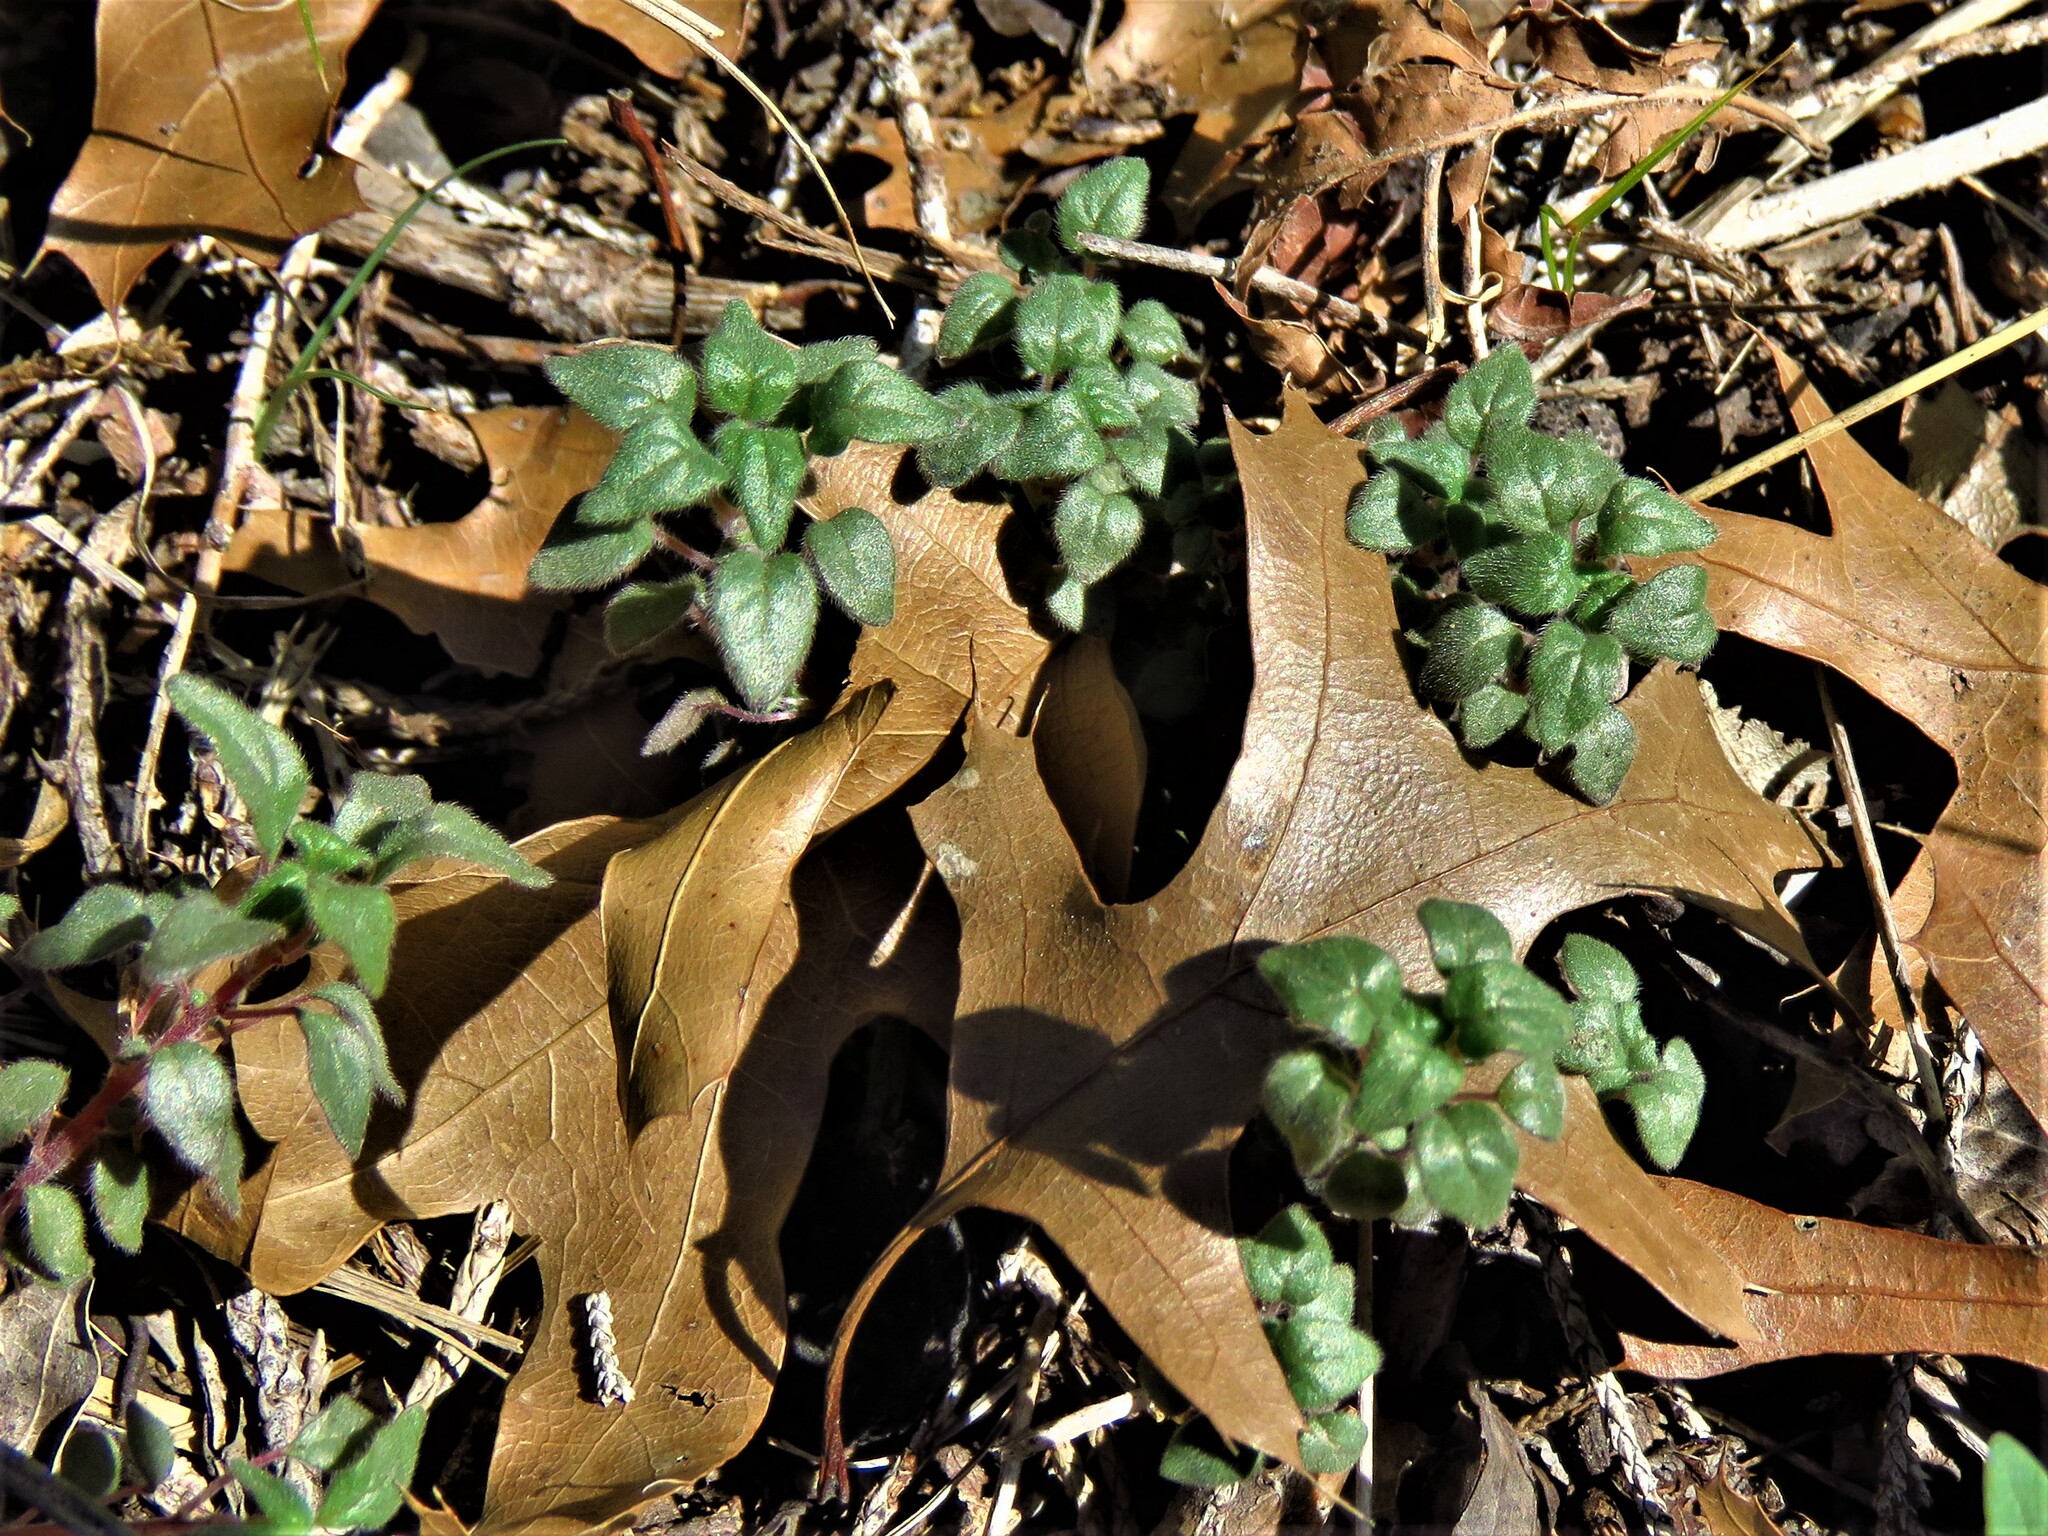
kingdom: Plantae
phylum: Tracheophyta
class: Magnoliopsida
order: Rosales
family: Urticaceae
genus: Parietaria
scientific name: Parietaria pensylvanica
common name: Pennsylvania pellitory
